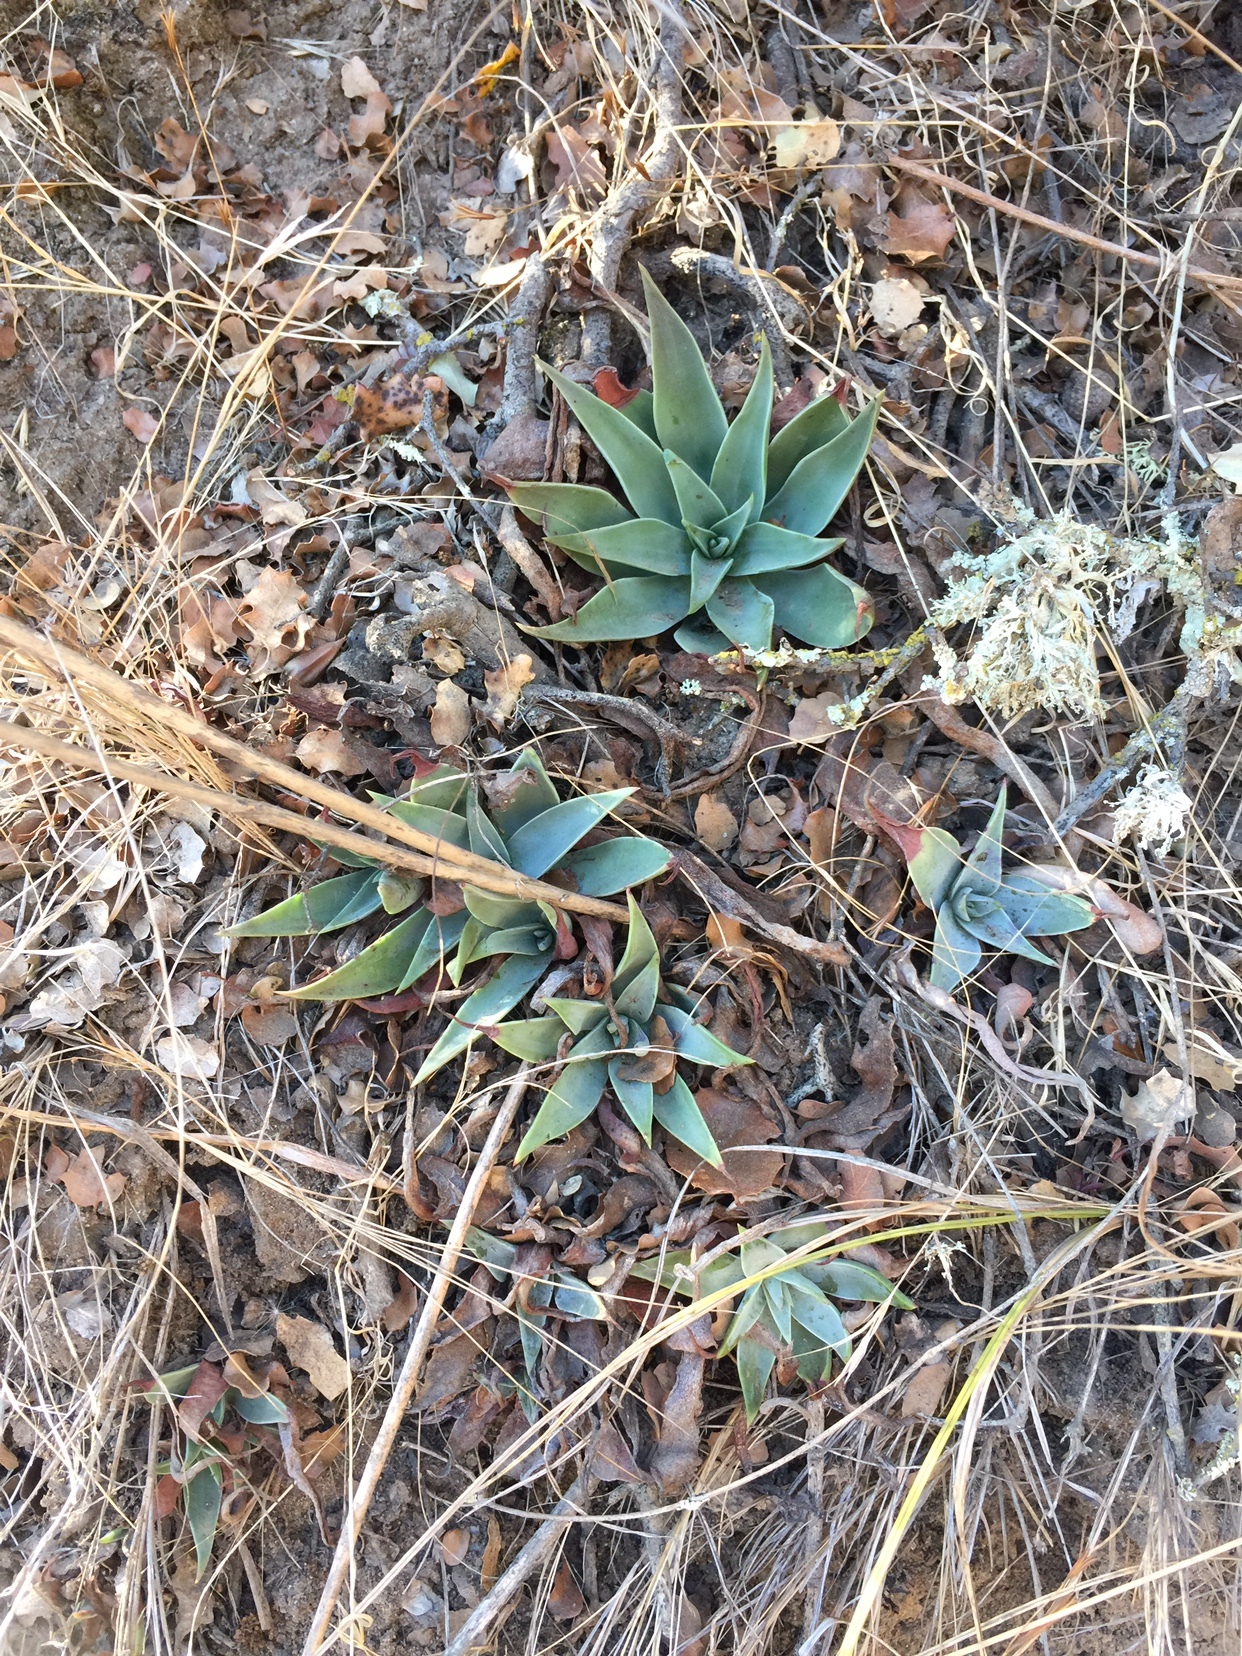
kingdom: Plantae
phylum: Tracheophyta
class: Magnoliopsida
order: Saxifragales
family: Crassulaceae
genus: Dudleya
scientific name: Dudleya lanceolata
